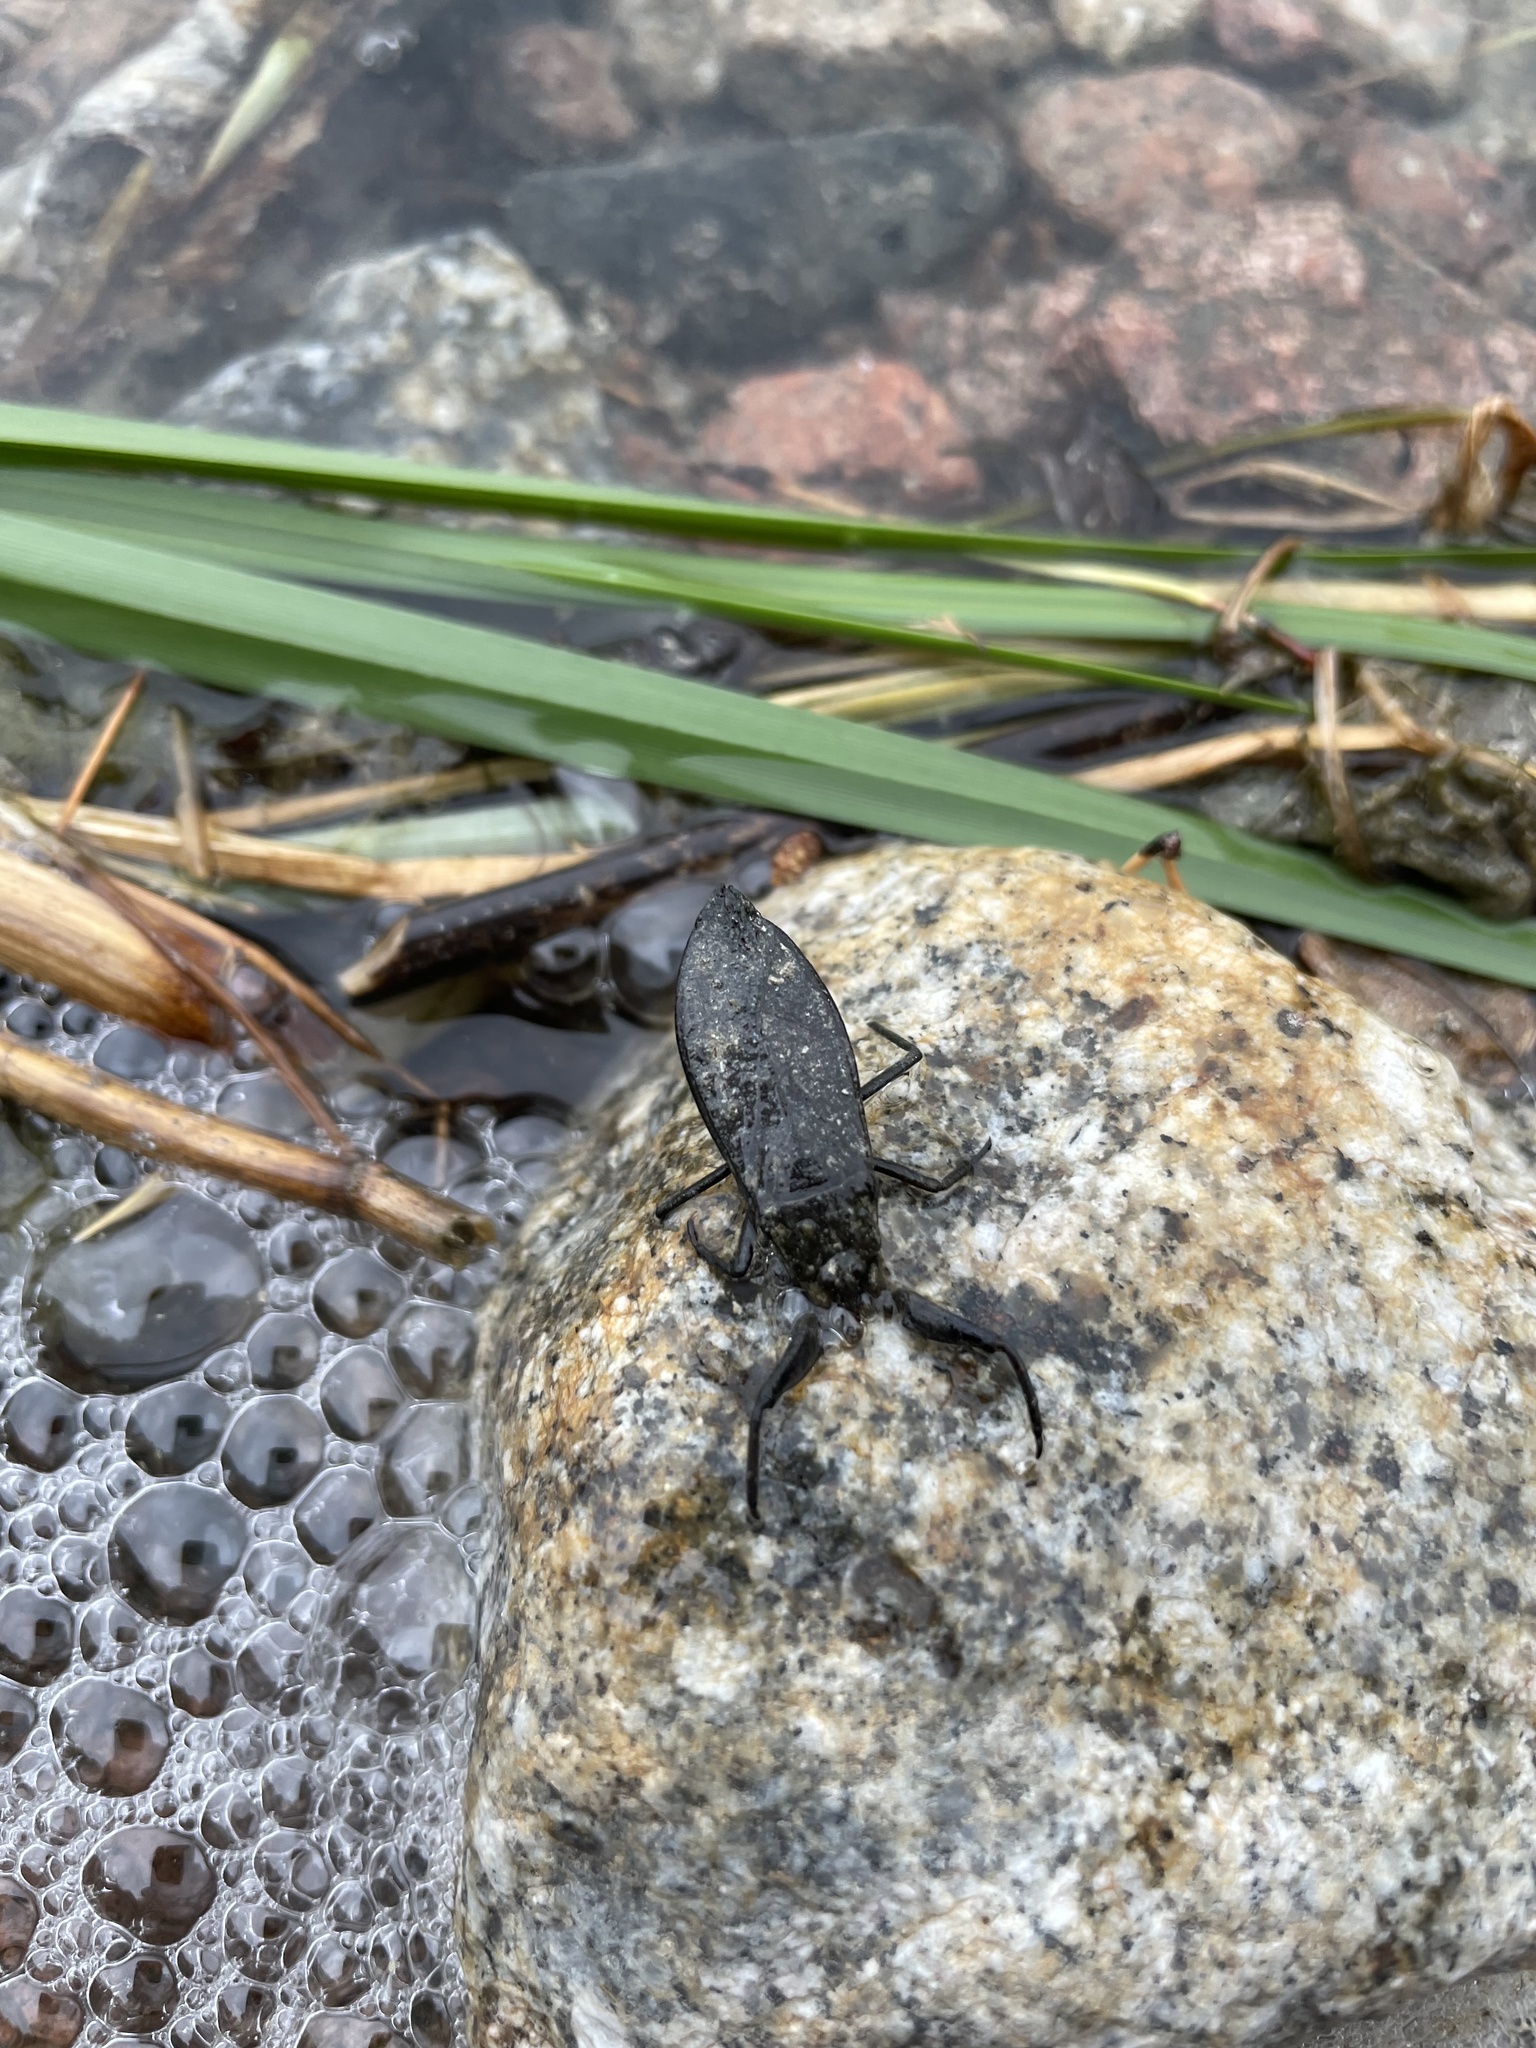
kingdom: Animalia
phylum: Arthropoda
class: Insecta
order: Hemiptera
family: Nepidae
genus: Nepa
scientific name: Nepa cinerea
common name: Water scorpion
